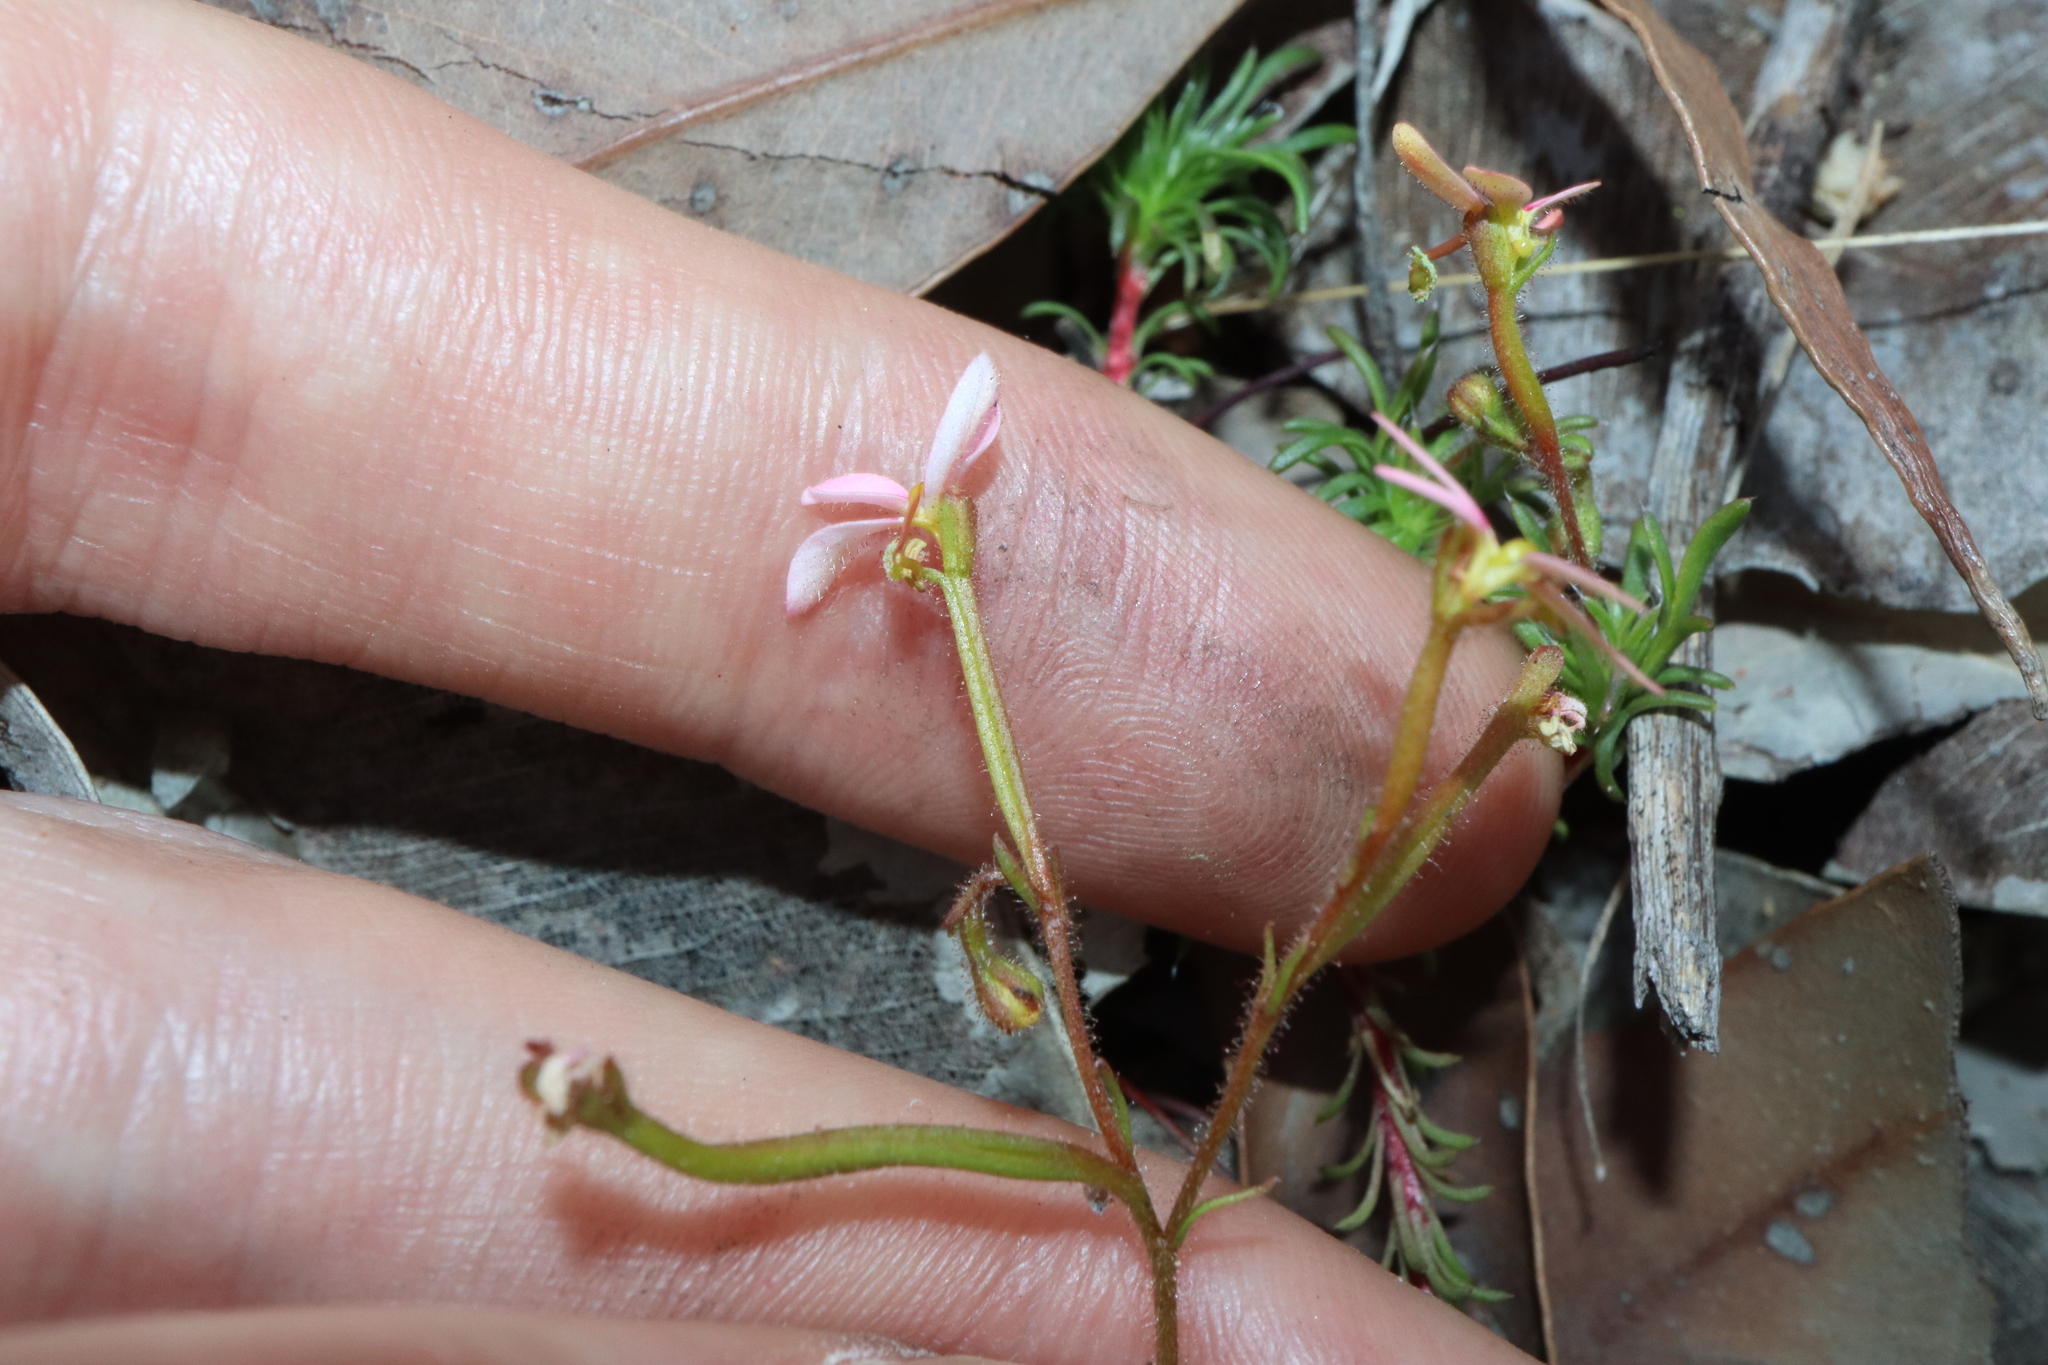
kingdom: Plantae
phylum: Tracheophyta
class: Magnoliopsida
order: Asterales
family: Stylidiaceae
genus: Stylidium
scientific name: Stylidium recurvum
